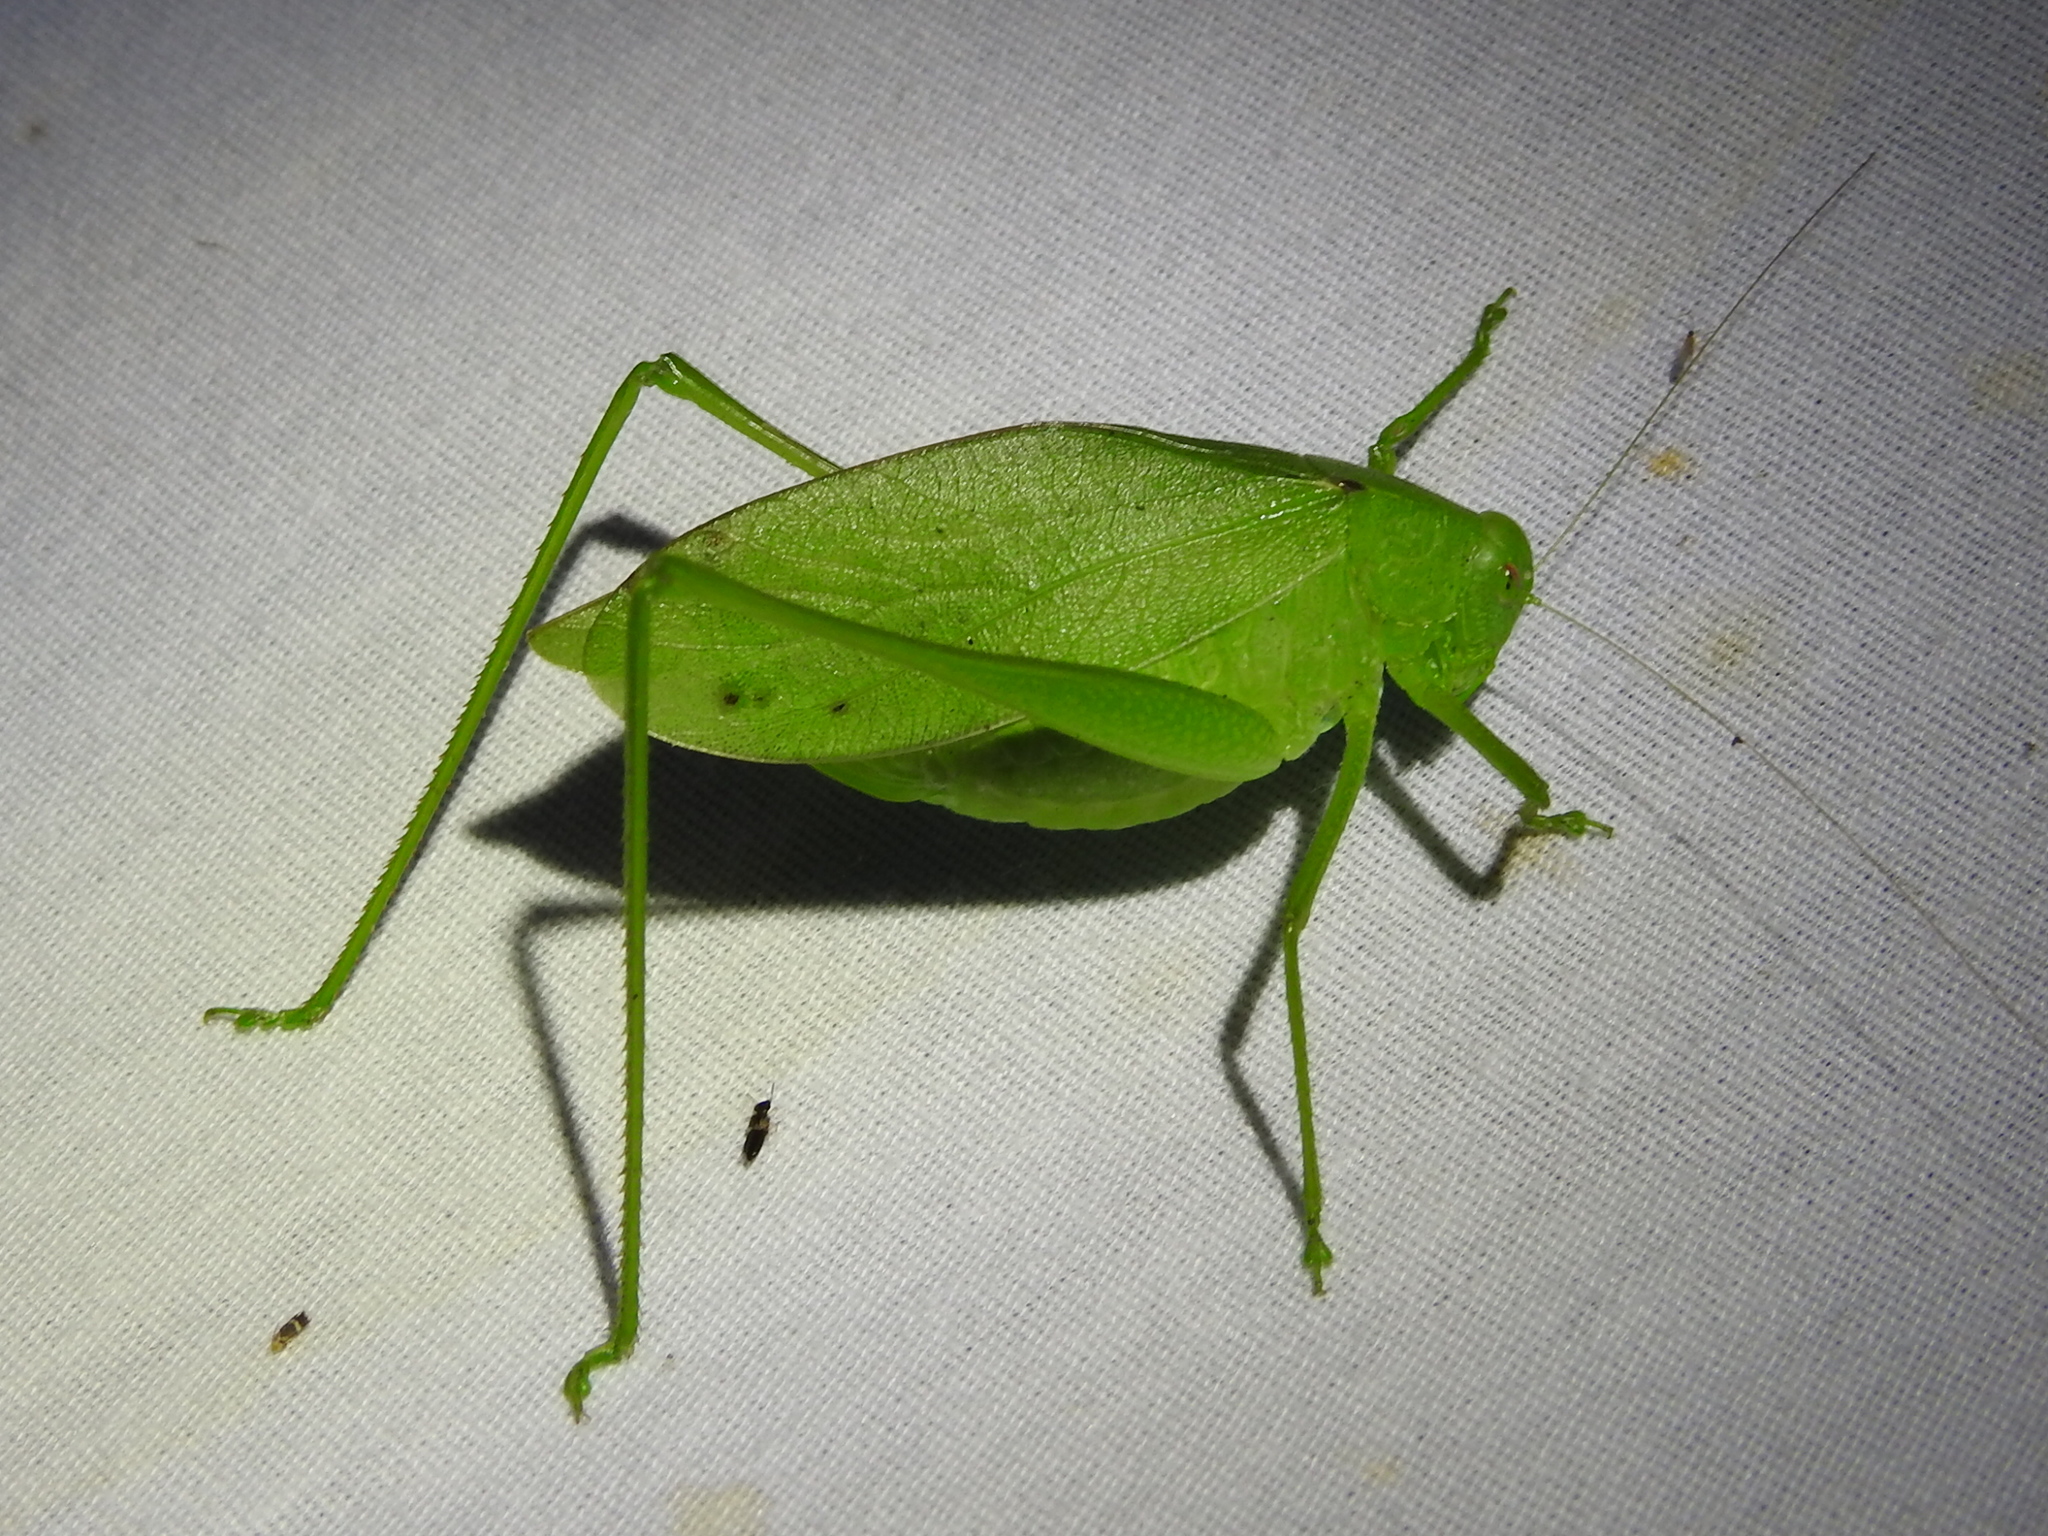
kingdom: Animalia
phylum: Arthropoda
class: Insecta
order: Orthoptera
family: Tettigoniidae
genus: Amblycorypha
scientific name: Amblycorypha oblongifolia
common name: Oblong-winged katydid
